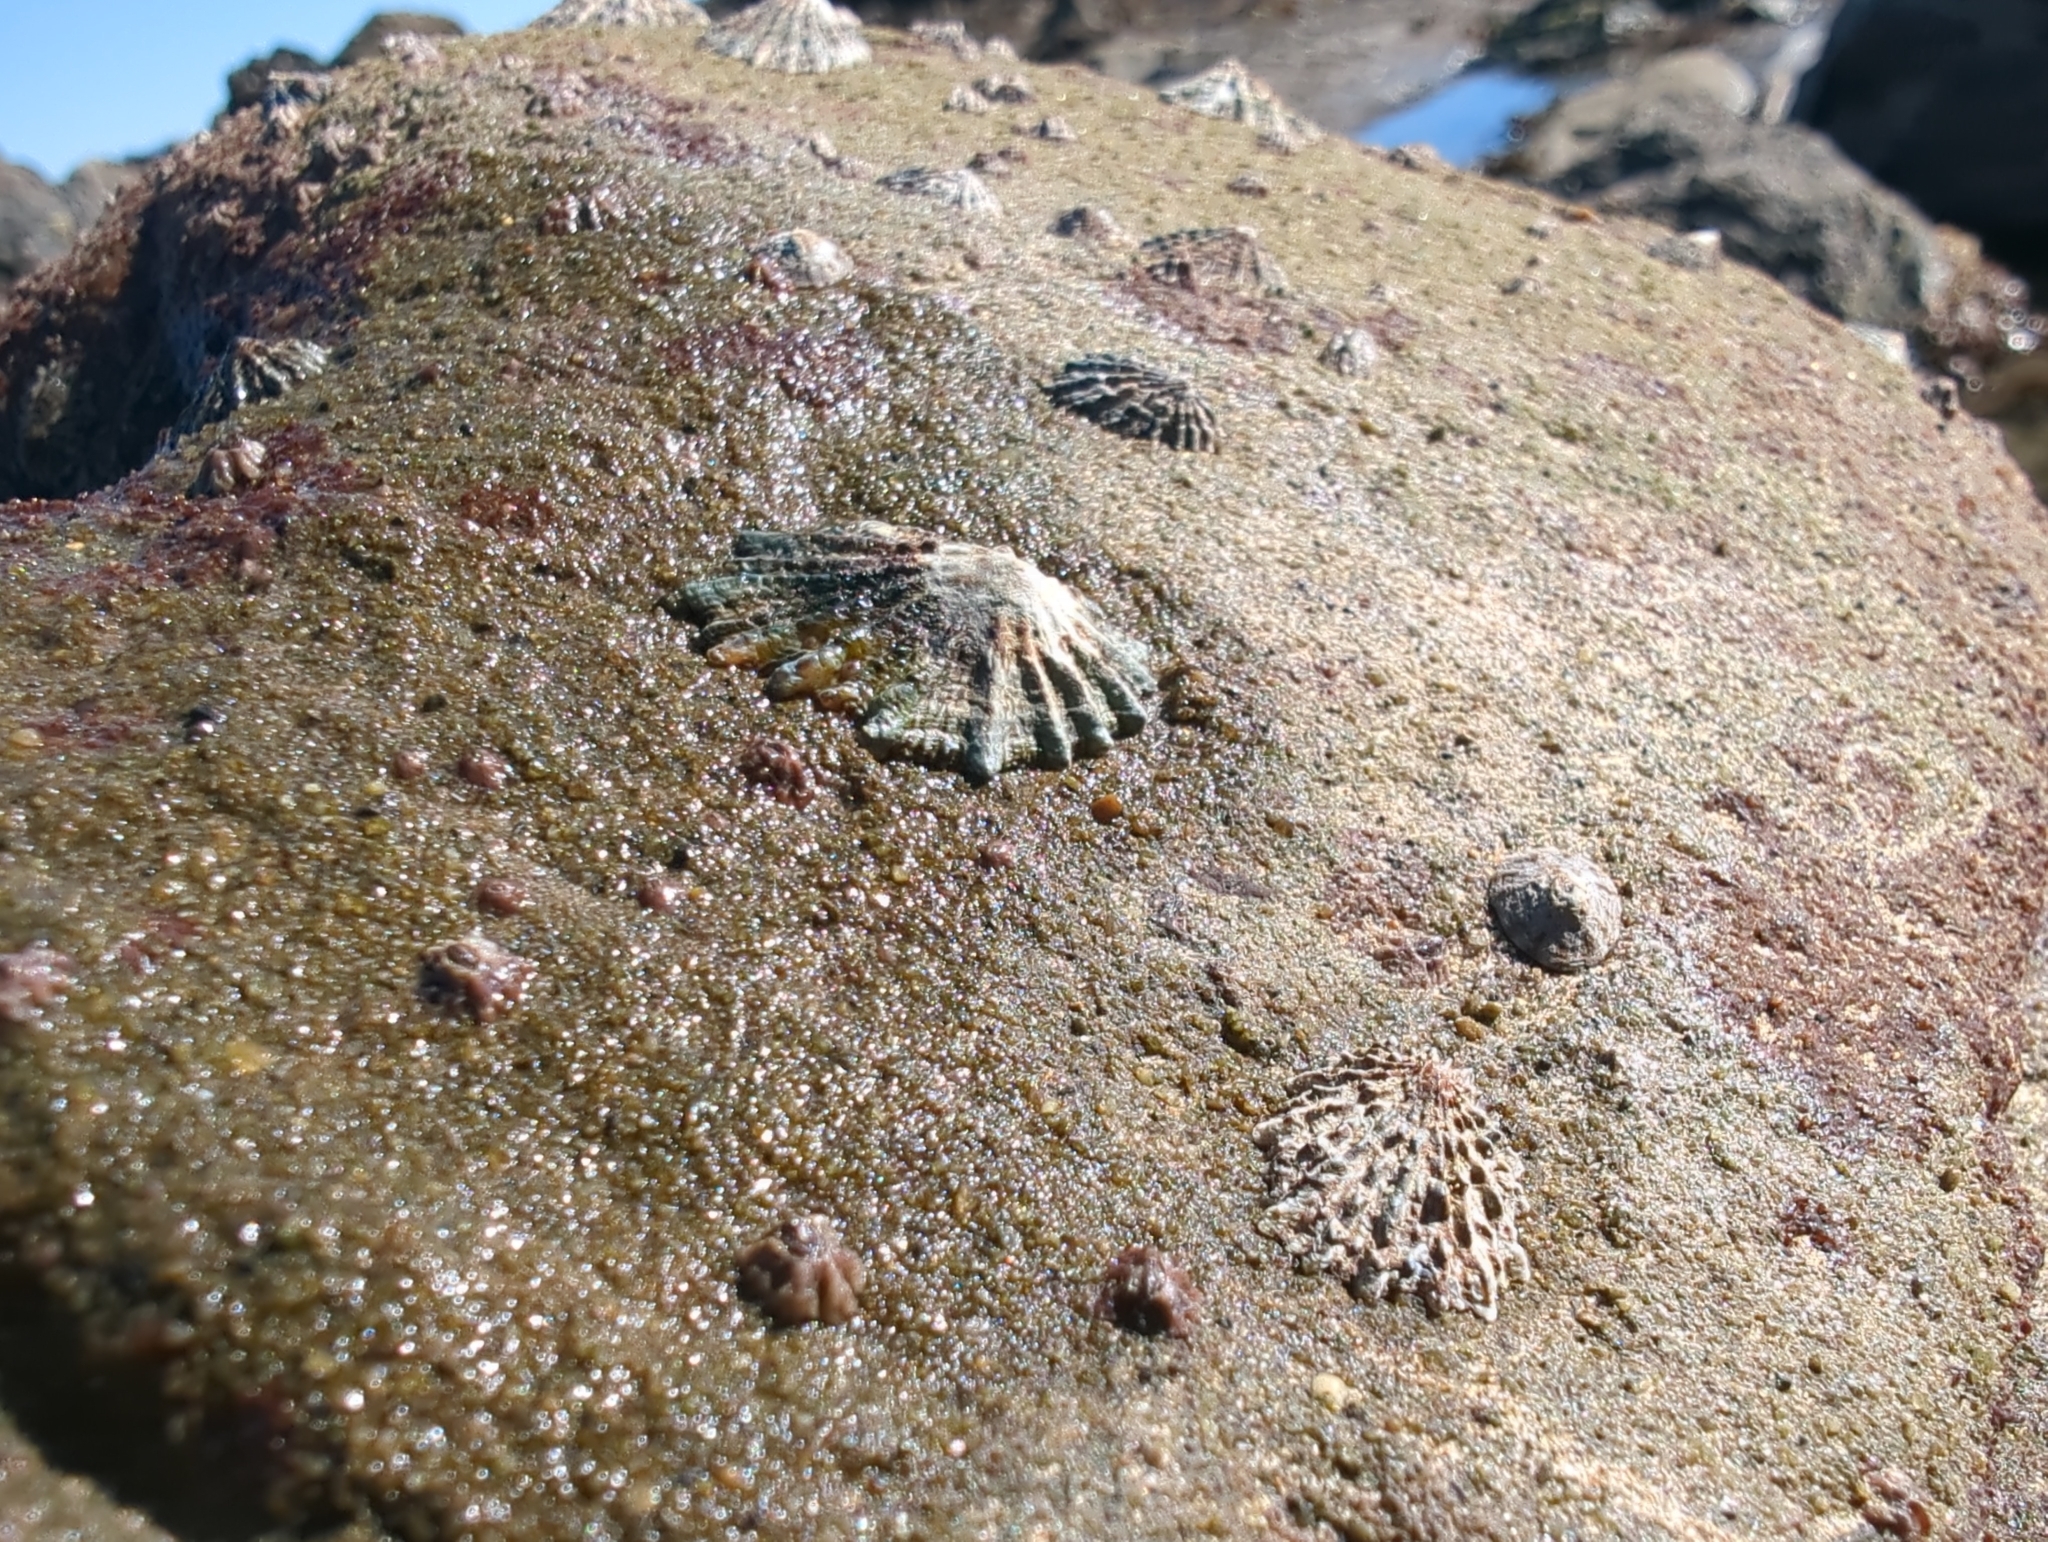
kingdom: Animalia
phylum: Mollusca
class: Gastropoda
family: Lottiidae
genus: Lottia
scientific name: Lottia scabra
